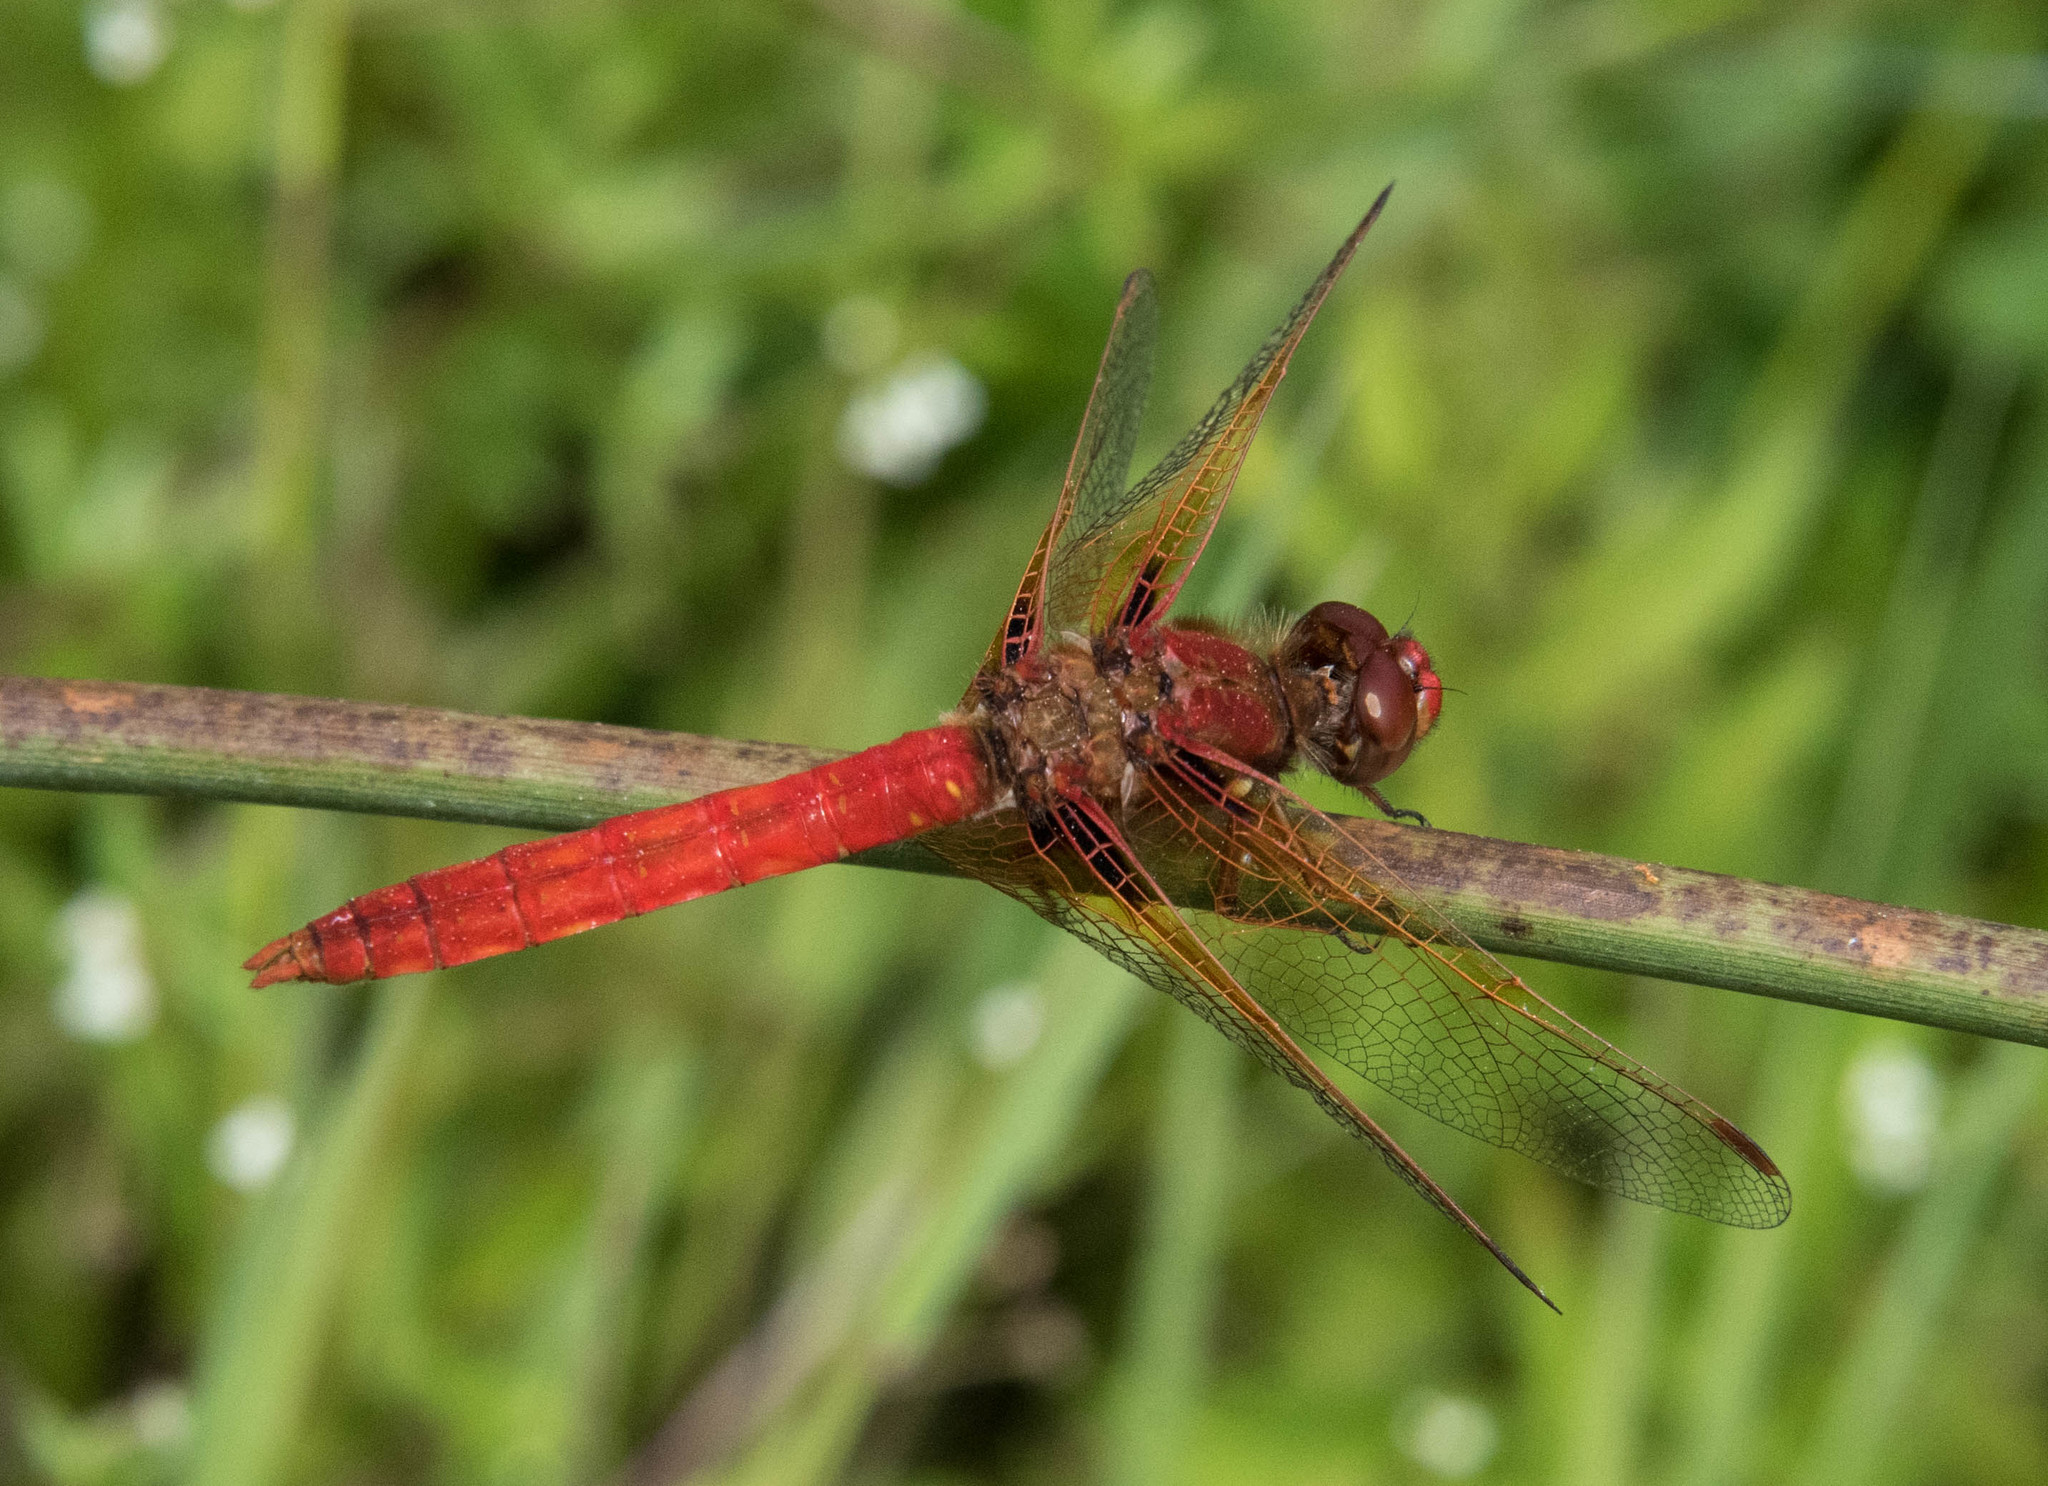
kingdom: Animalia
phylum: Arthropoda
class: Insecta
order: Odonata
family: Libellulidae
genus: Sympetrum
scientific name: Sympetrum illotum
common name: Cardinal meadowhawk
